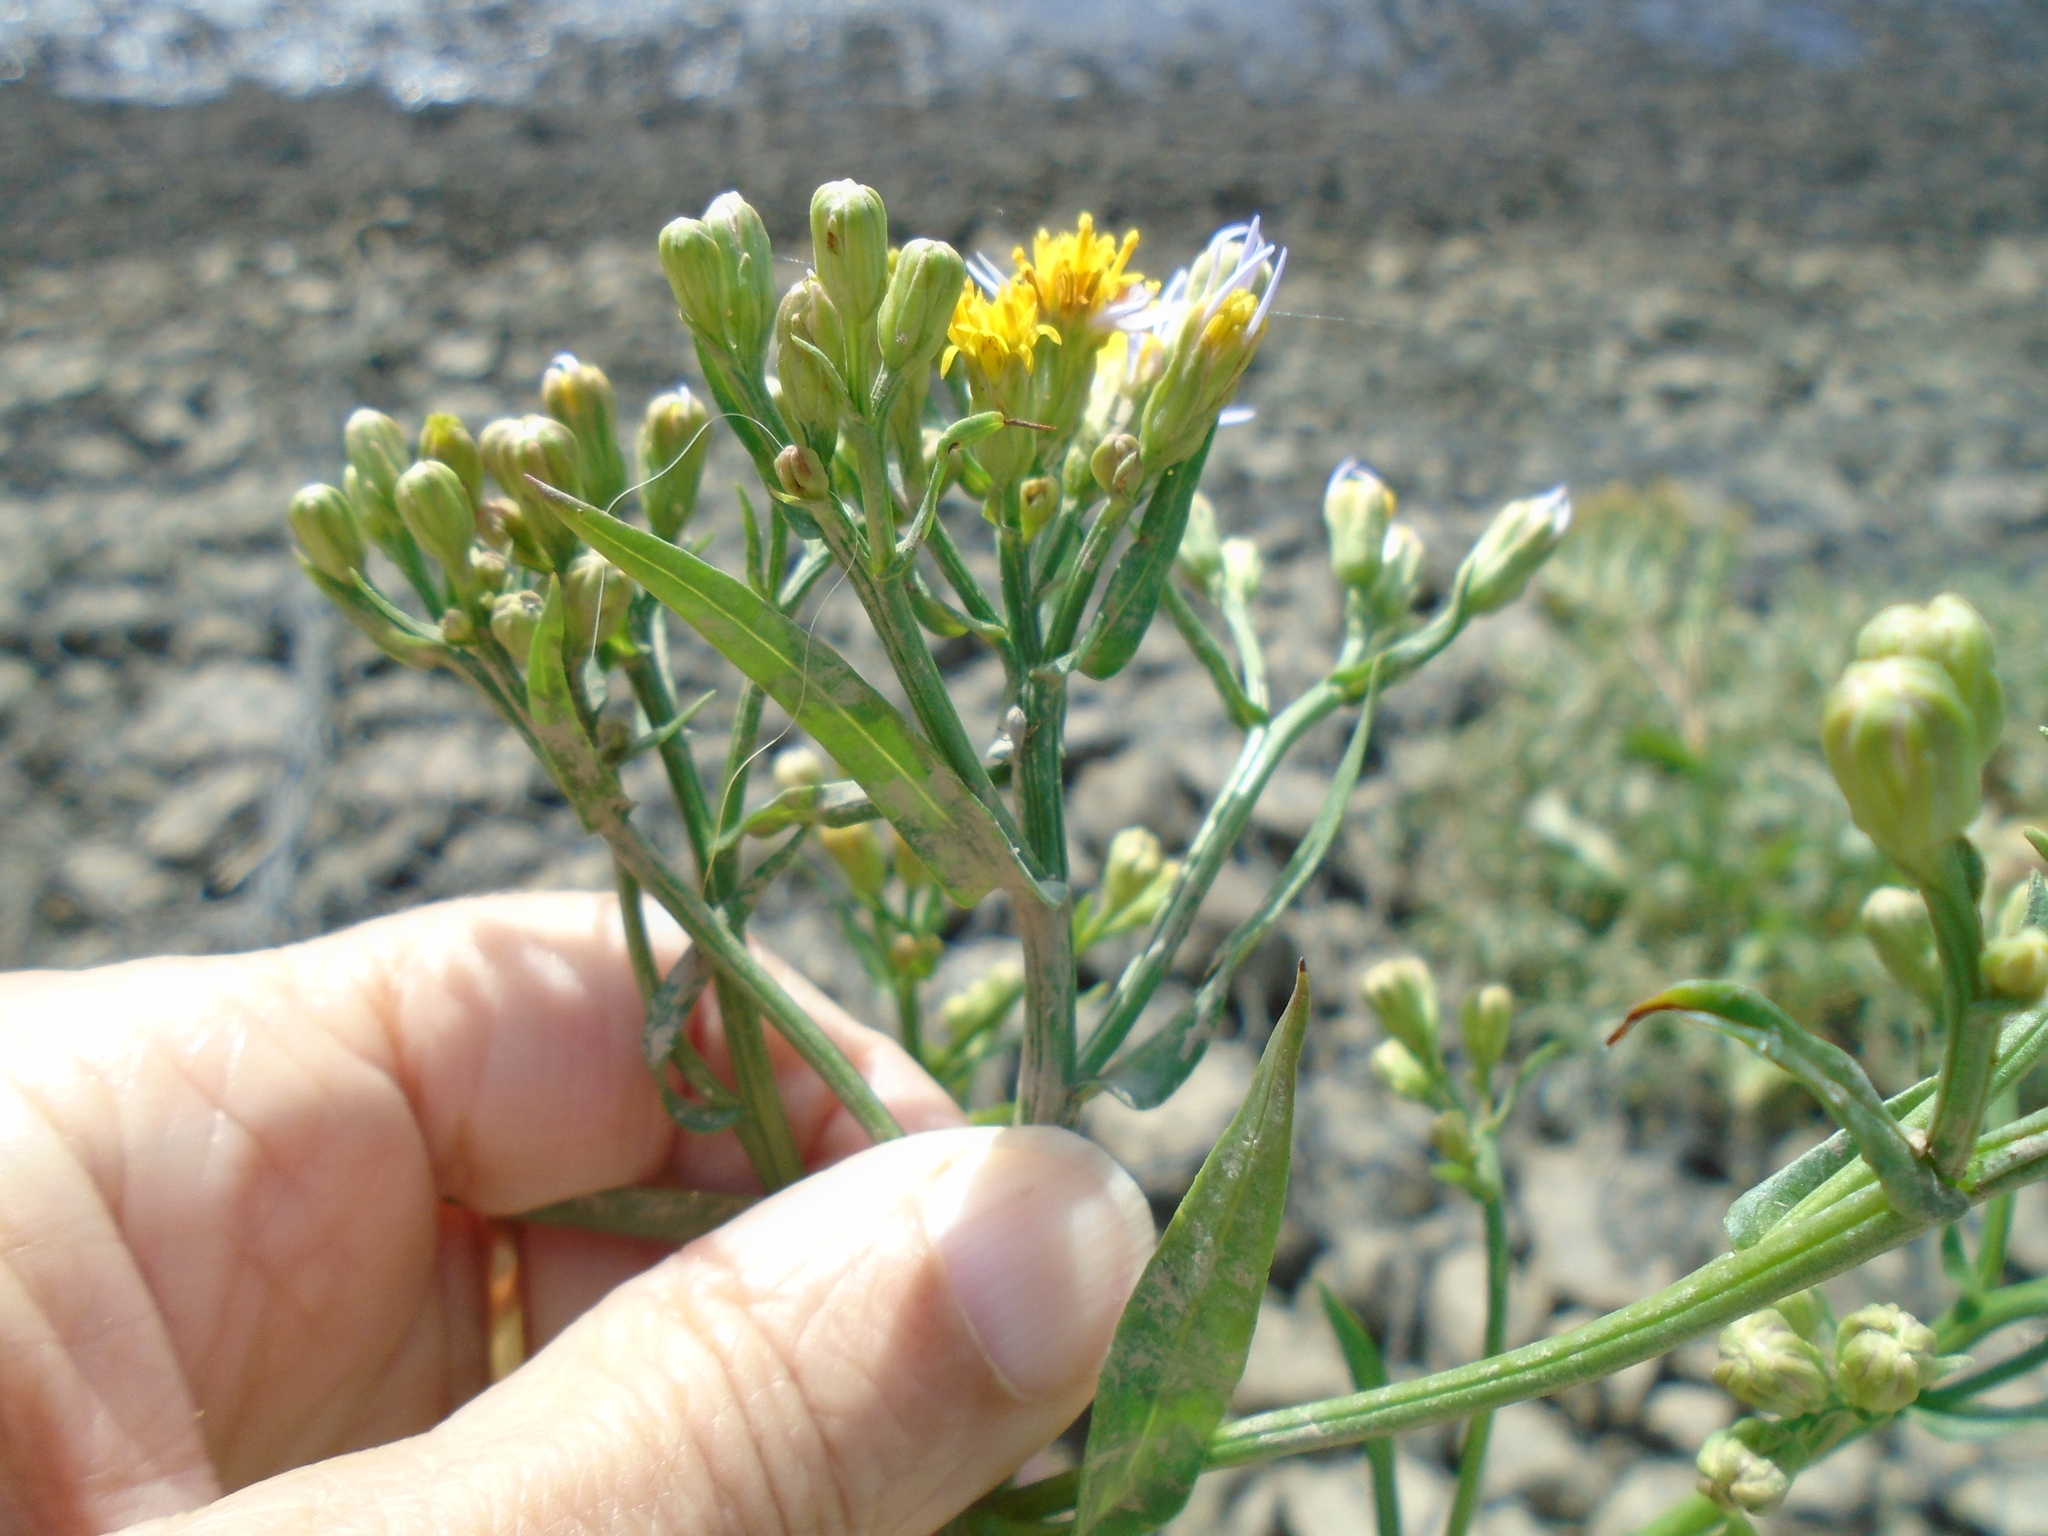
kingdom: Plantae
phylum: Tracheophyta
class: Magnoliopsida
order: Asterales
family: Asteraceae
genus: Tripolium
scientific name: Tripolium pannonicum
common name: Sea aster
